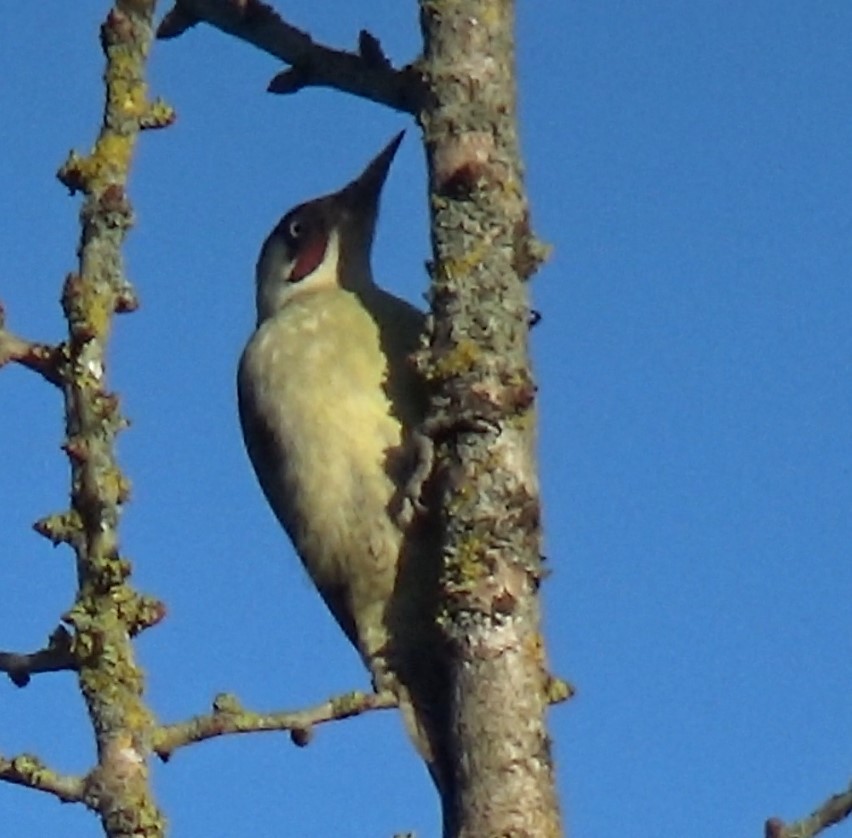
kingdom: Animalia
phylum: Chordata
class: Aves
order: Piciformes
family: Picidae
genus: Picus
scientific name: Picus viridis
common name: European green woodpecker
